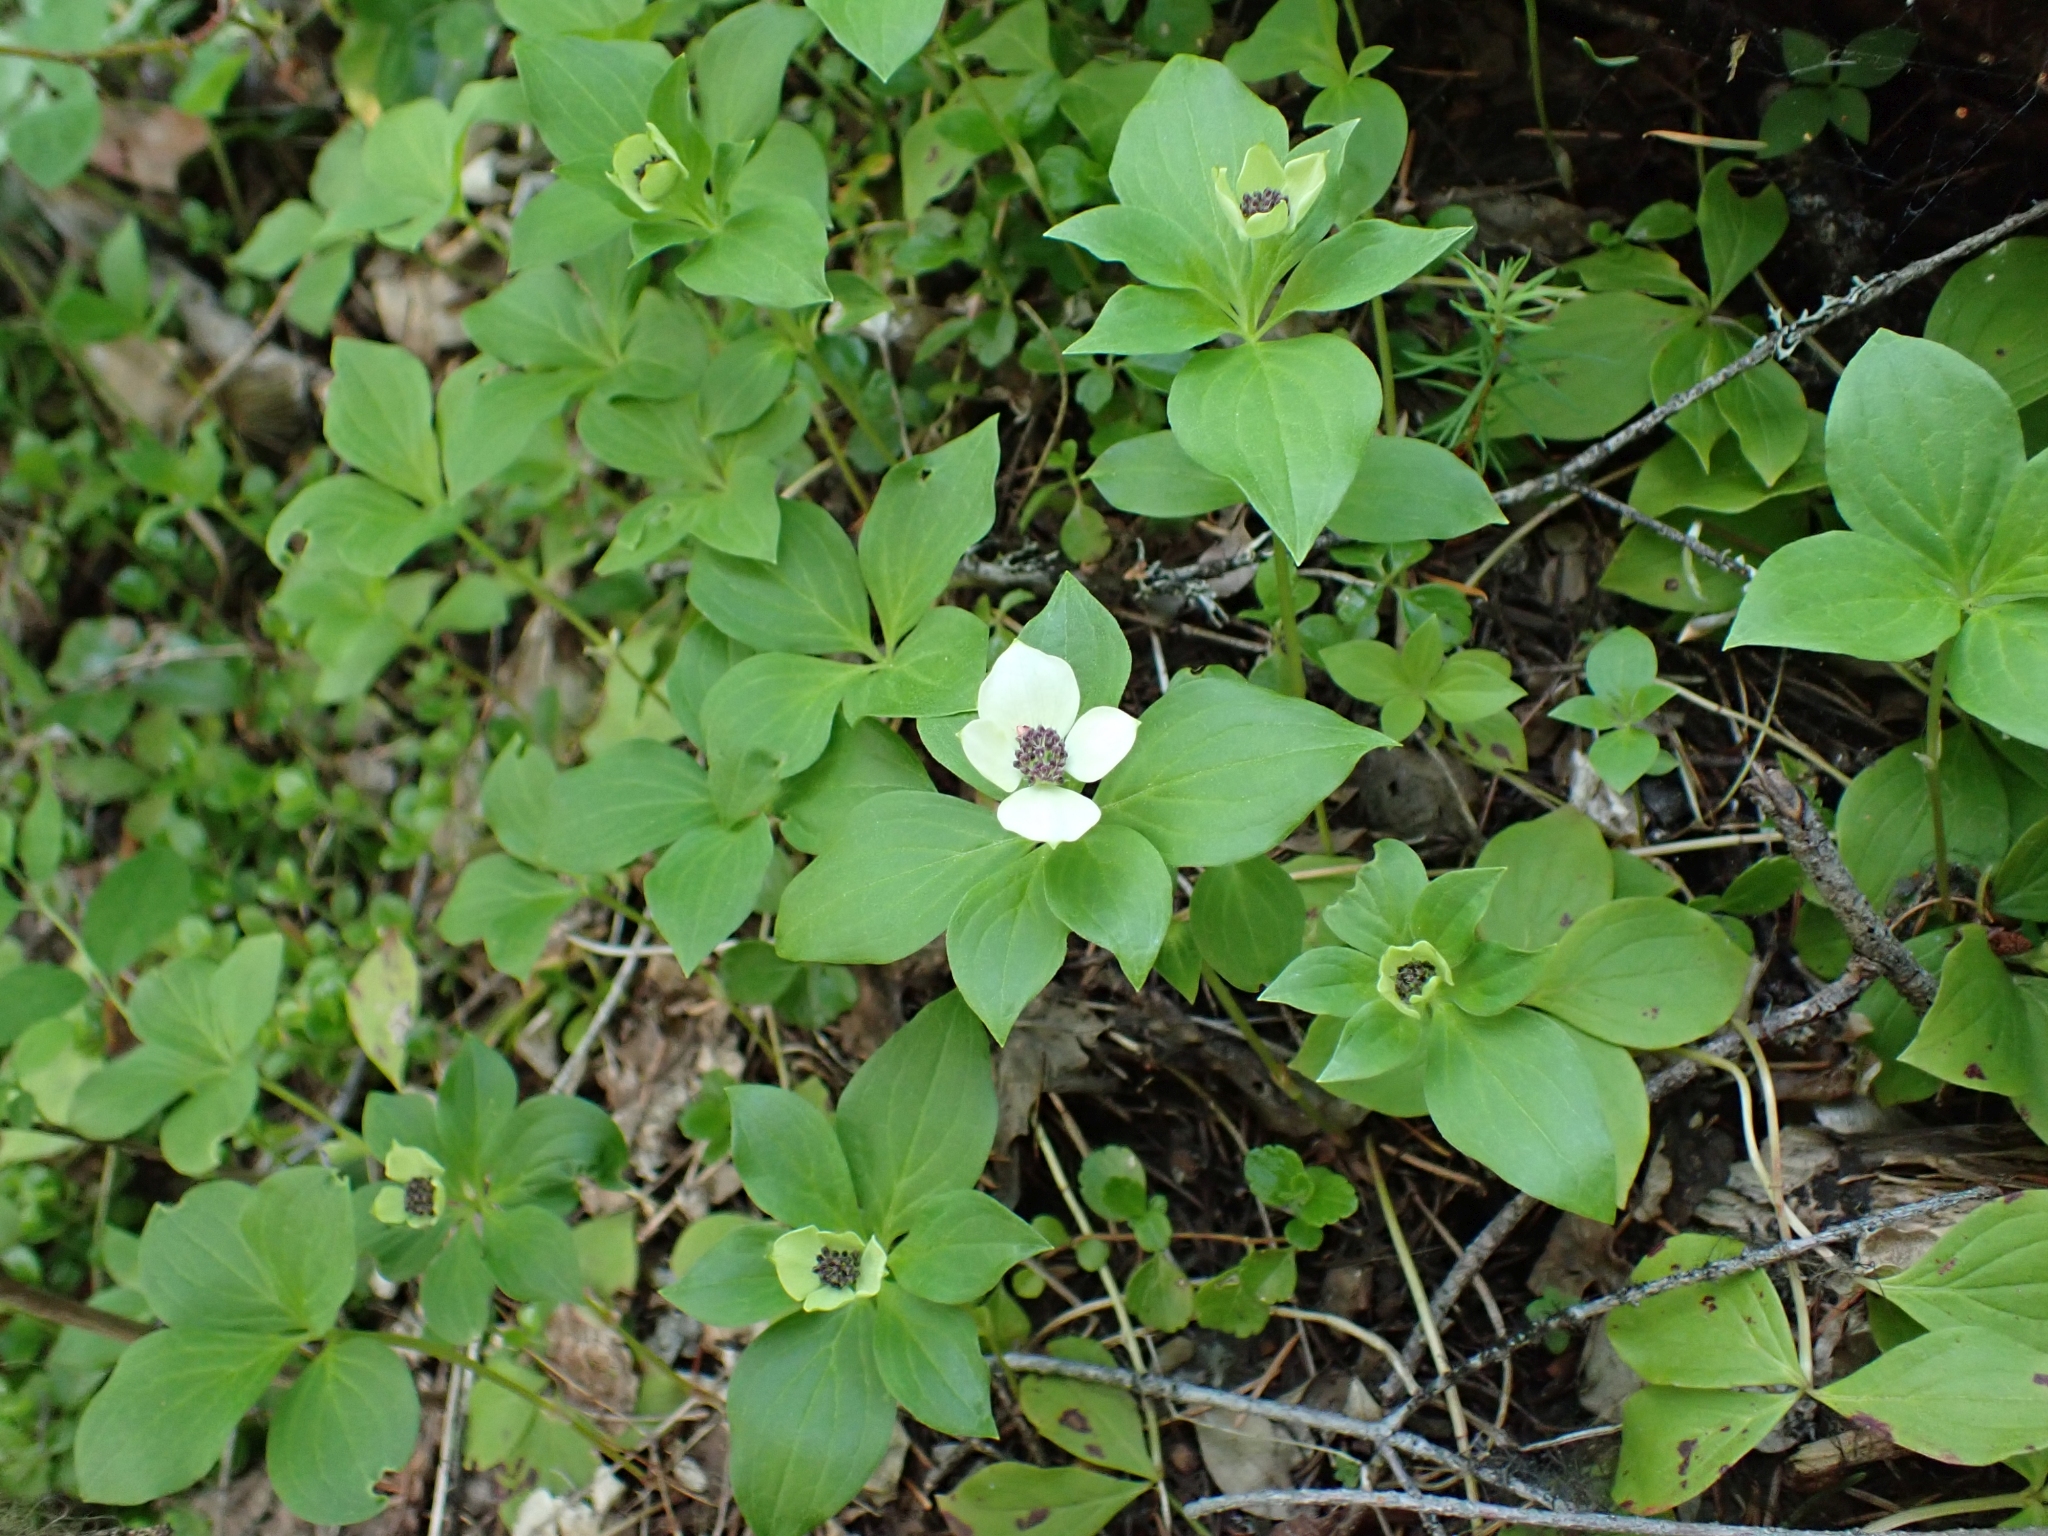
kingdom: Plantae
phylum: Tracheophyta
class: Magnoliopsida
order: Cornales
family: Cornaceae
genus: Cornus
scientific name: Cornus unalaschkensis
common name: Alaska bunchberry
